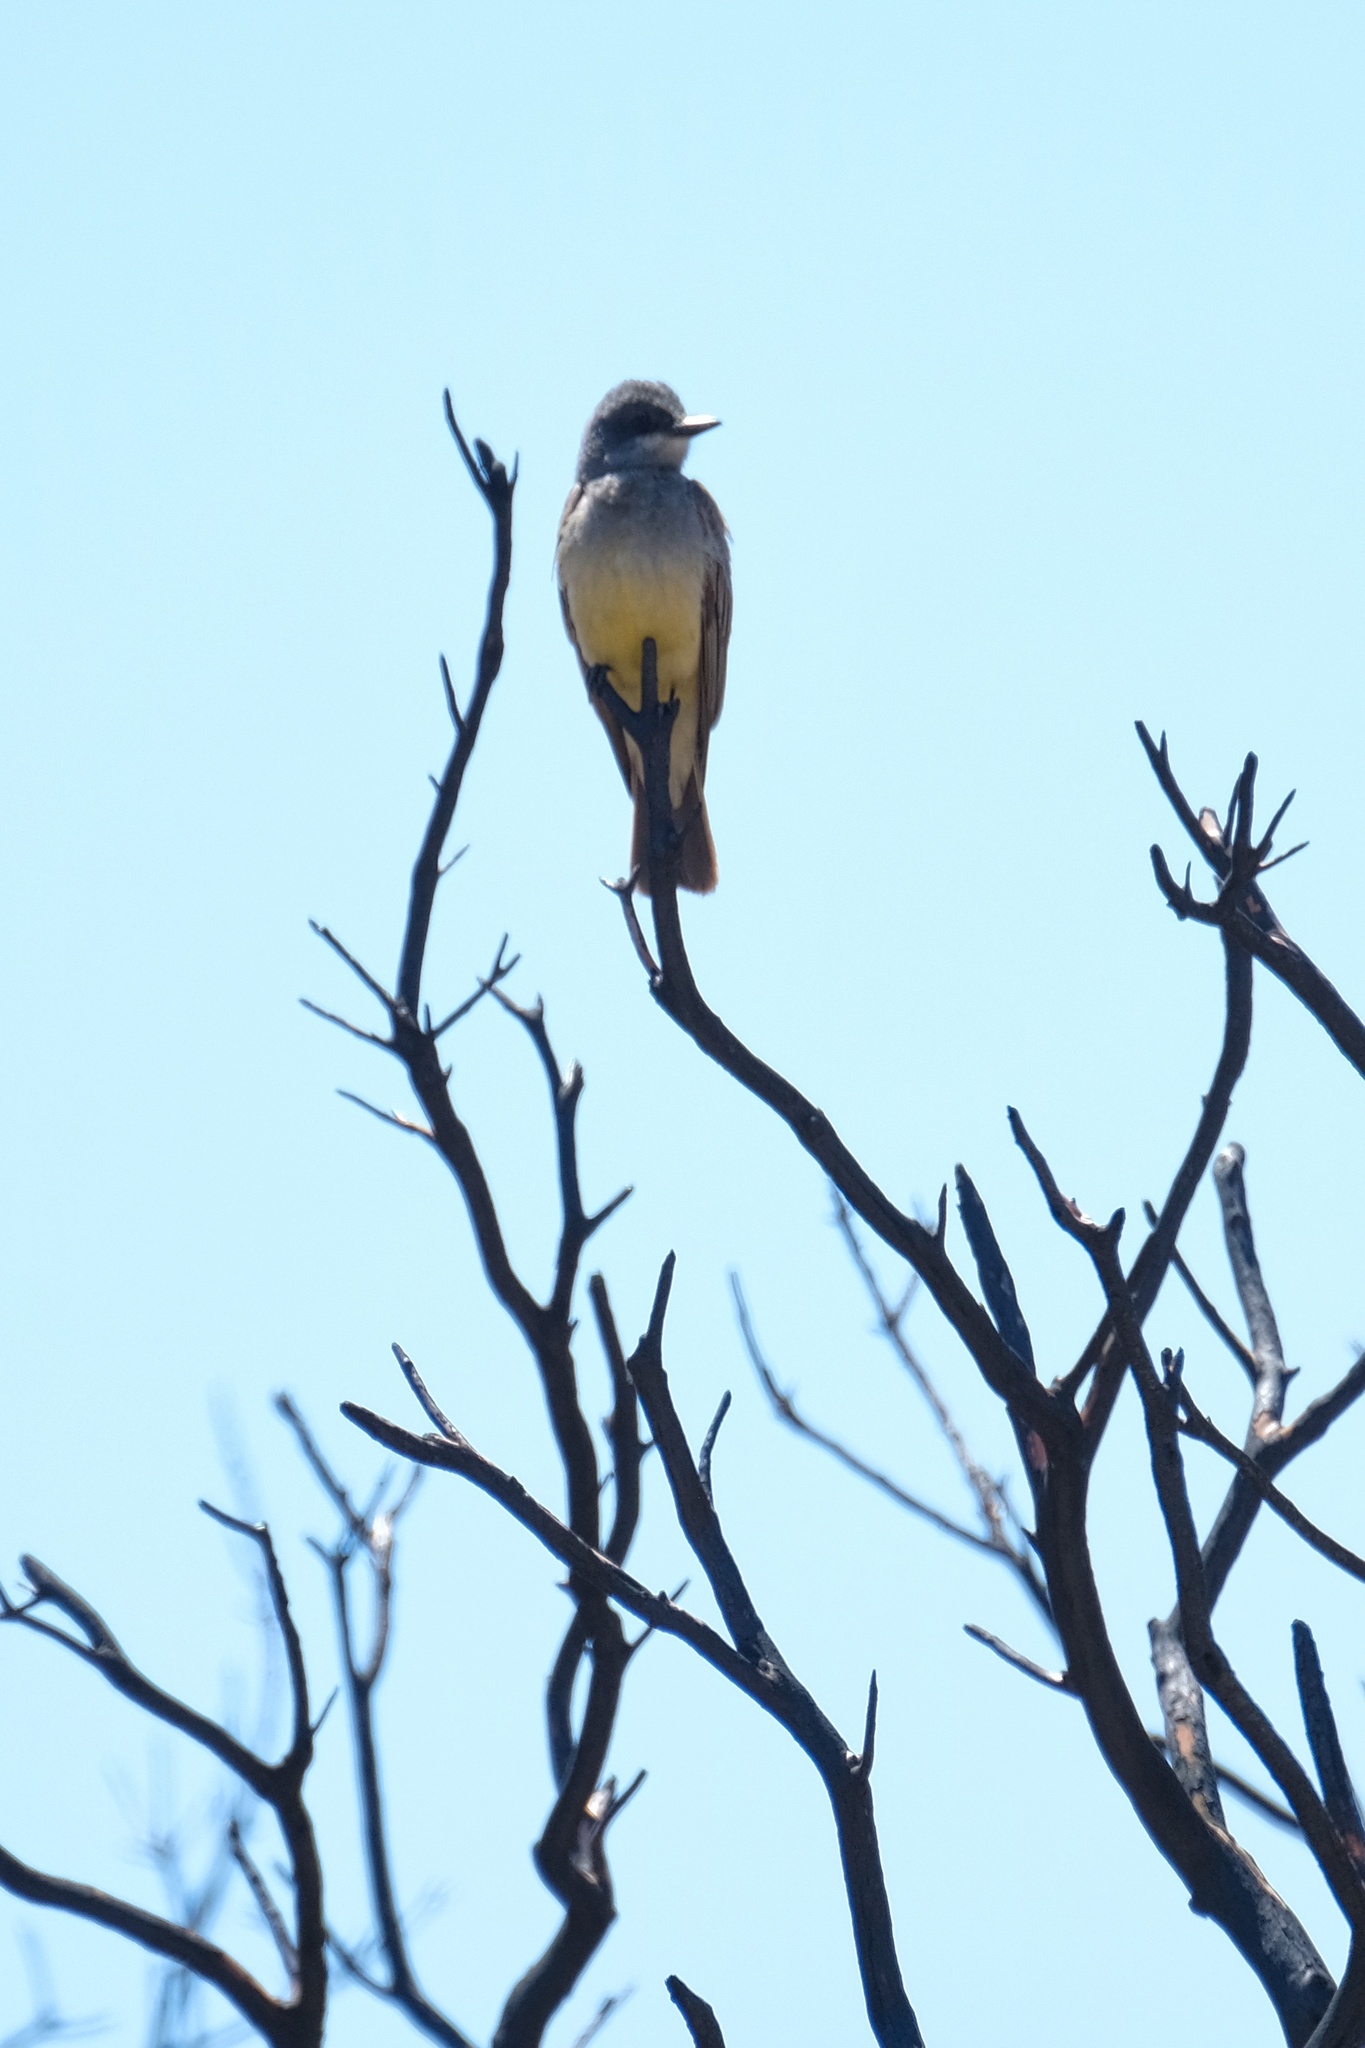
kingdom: Animalia
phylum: Chordata
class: Aves
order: Passeriformes
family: Tyrannidae
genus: Tyrannus
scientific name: Tyrannus vociferans
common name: Cassin's kingbird
